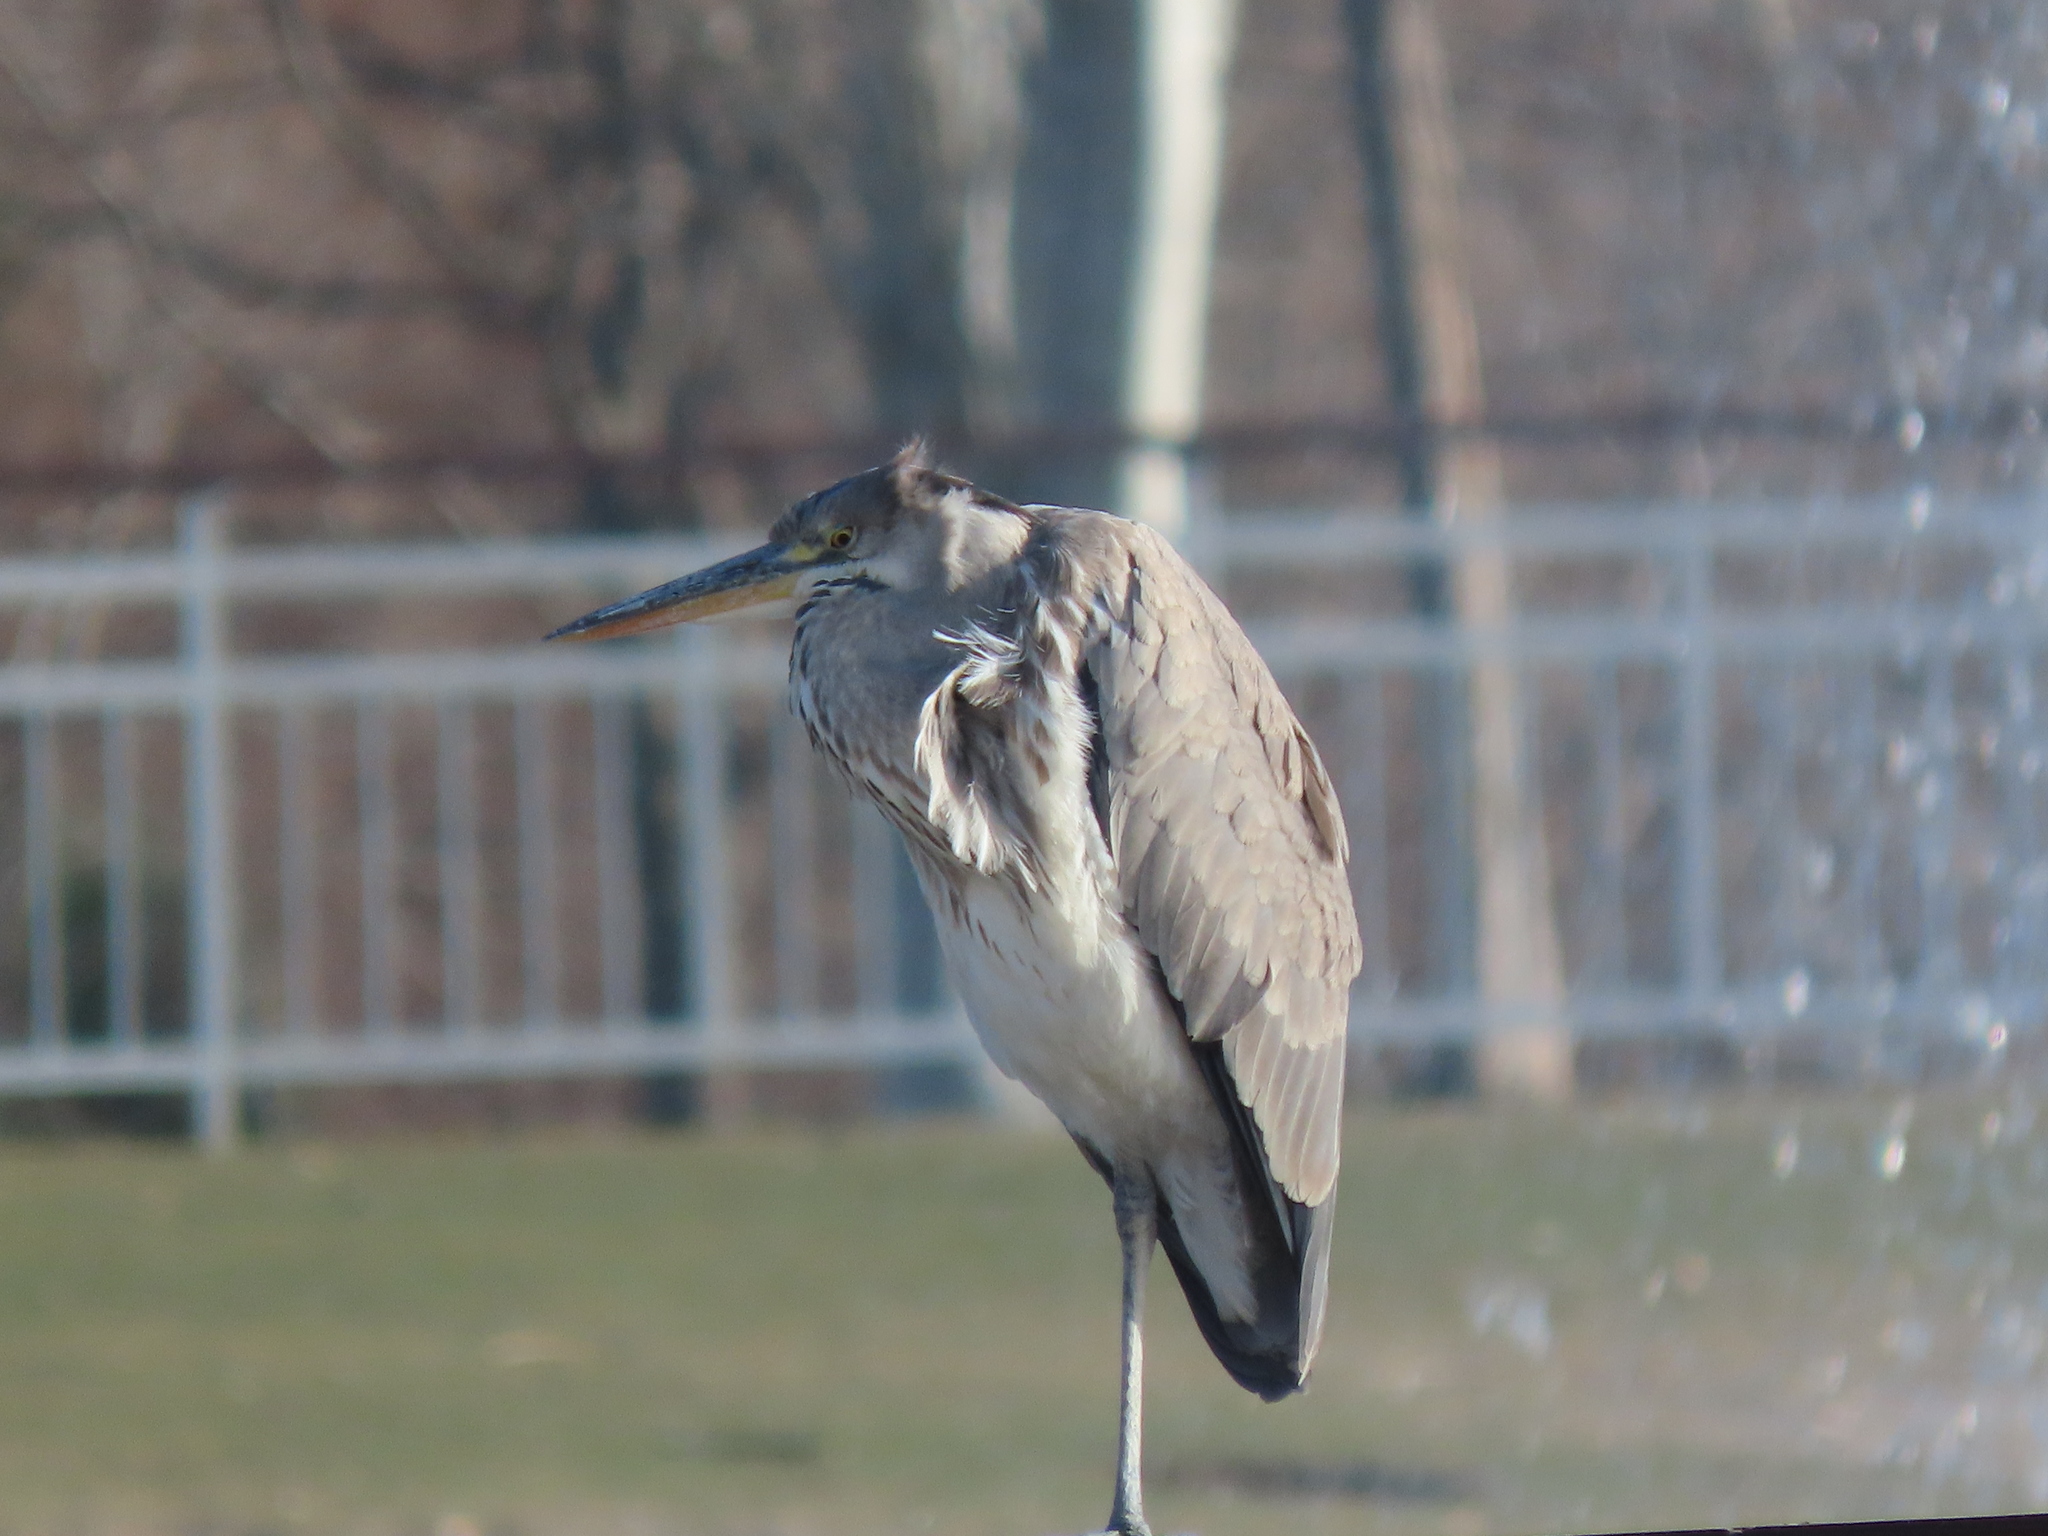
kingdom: Animalia
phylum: Chordata
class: Aves
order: Pelecaniformes
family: Ardeidae
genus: Ardea
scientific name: Ardea cinerea
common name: Grey heron
